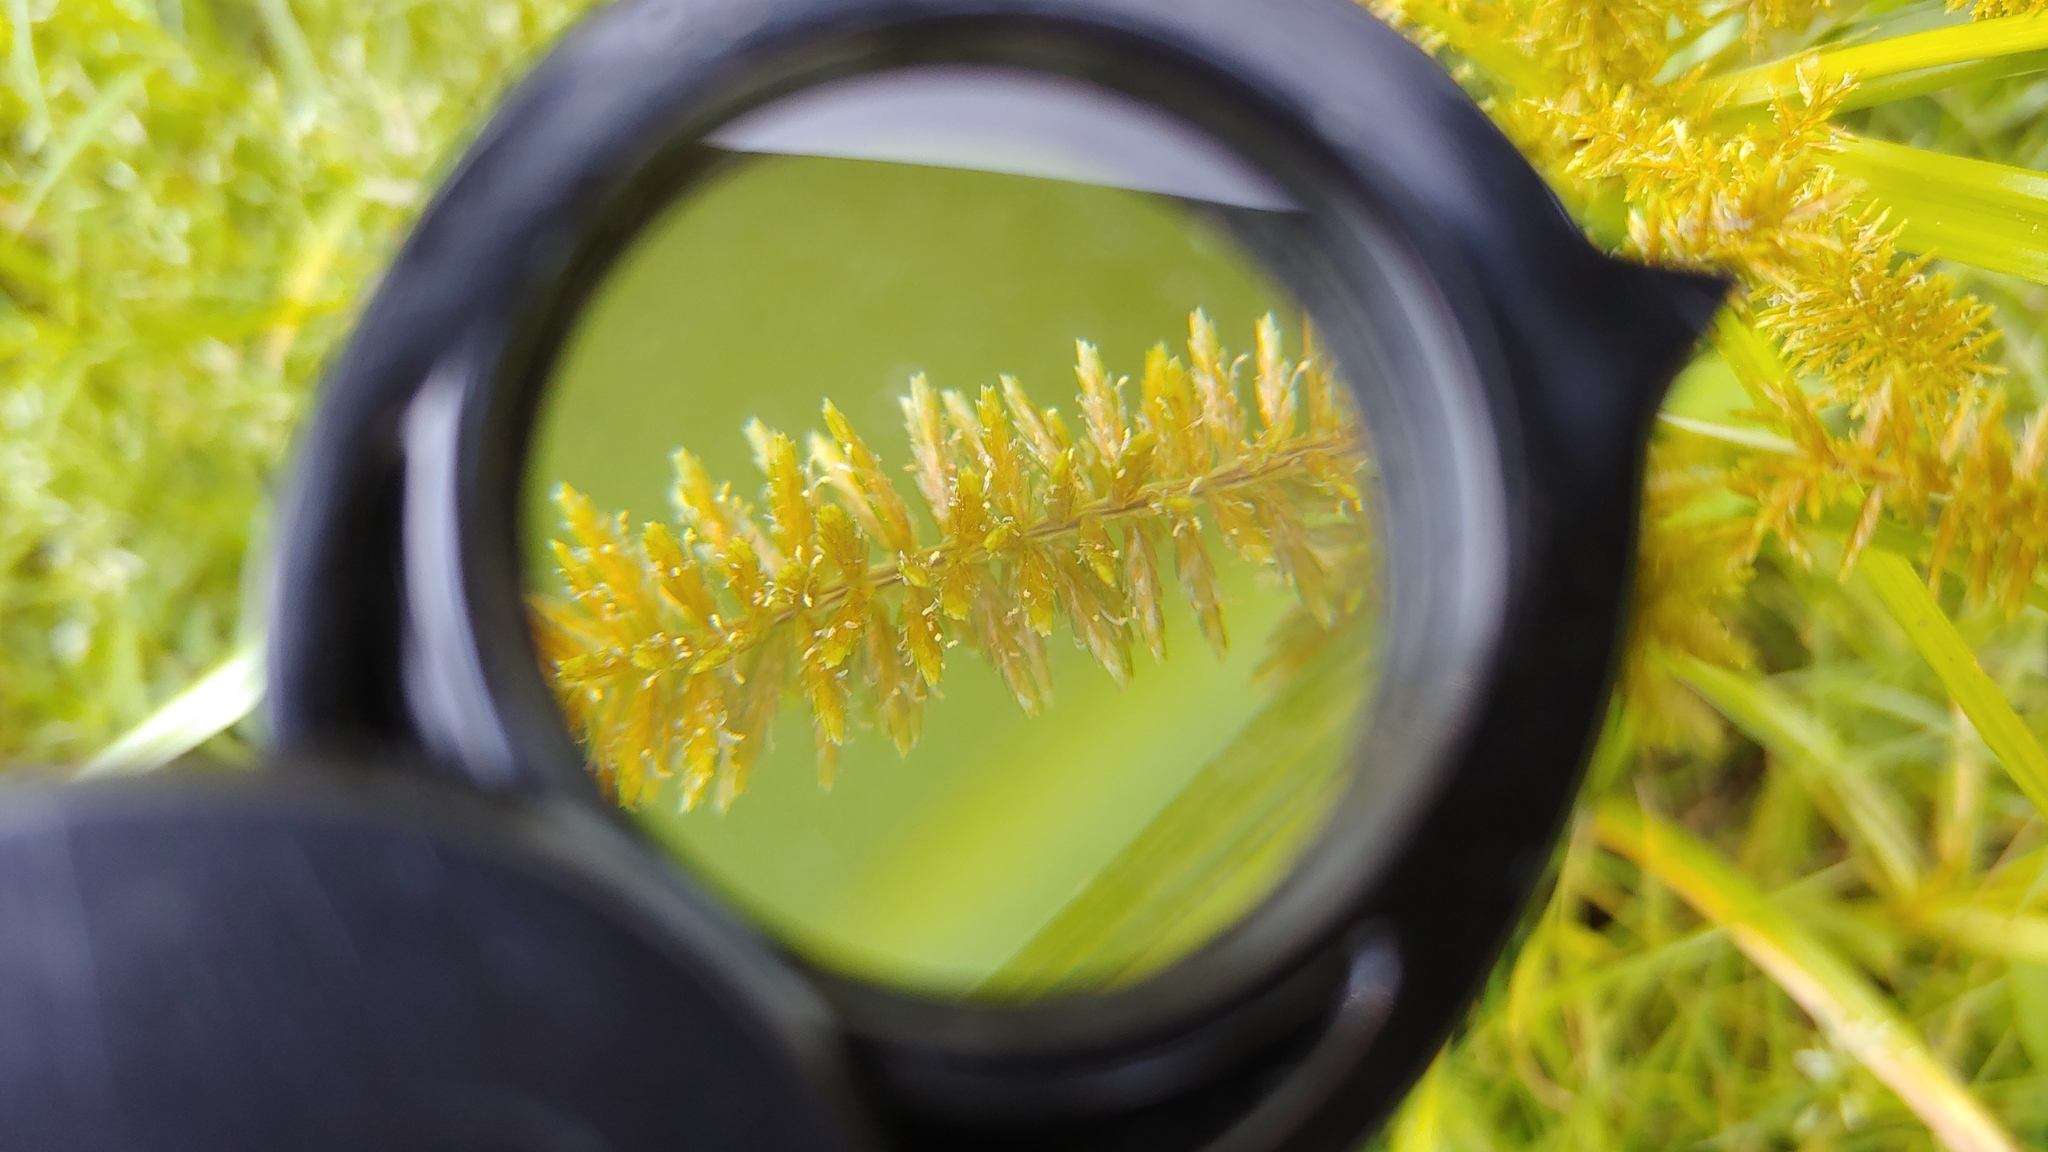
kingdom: Plantae
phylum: Tracheophyta
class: Liliopsida
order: Poales
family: Cyperaceae
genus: Cyperus
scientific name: Cyperus erythrorhizos
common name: Red-root flat sedge
